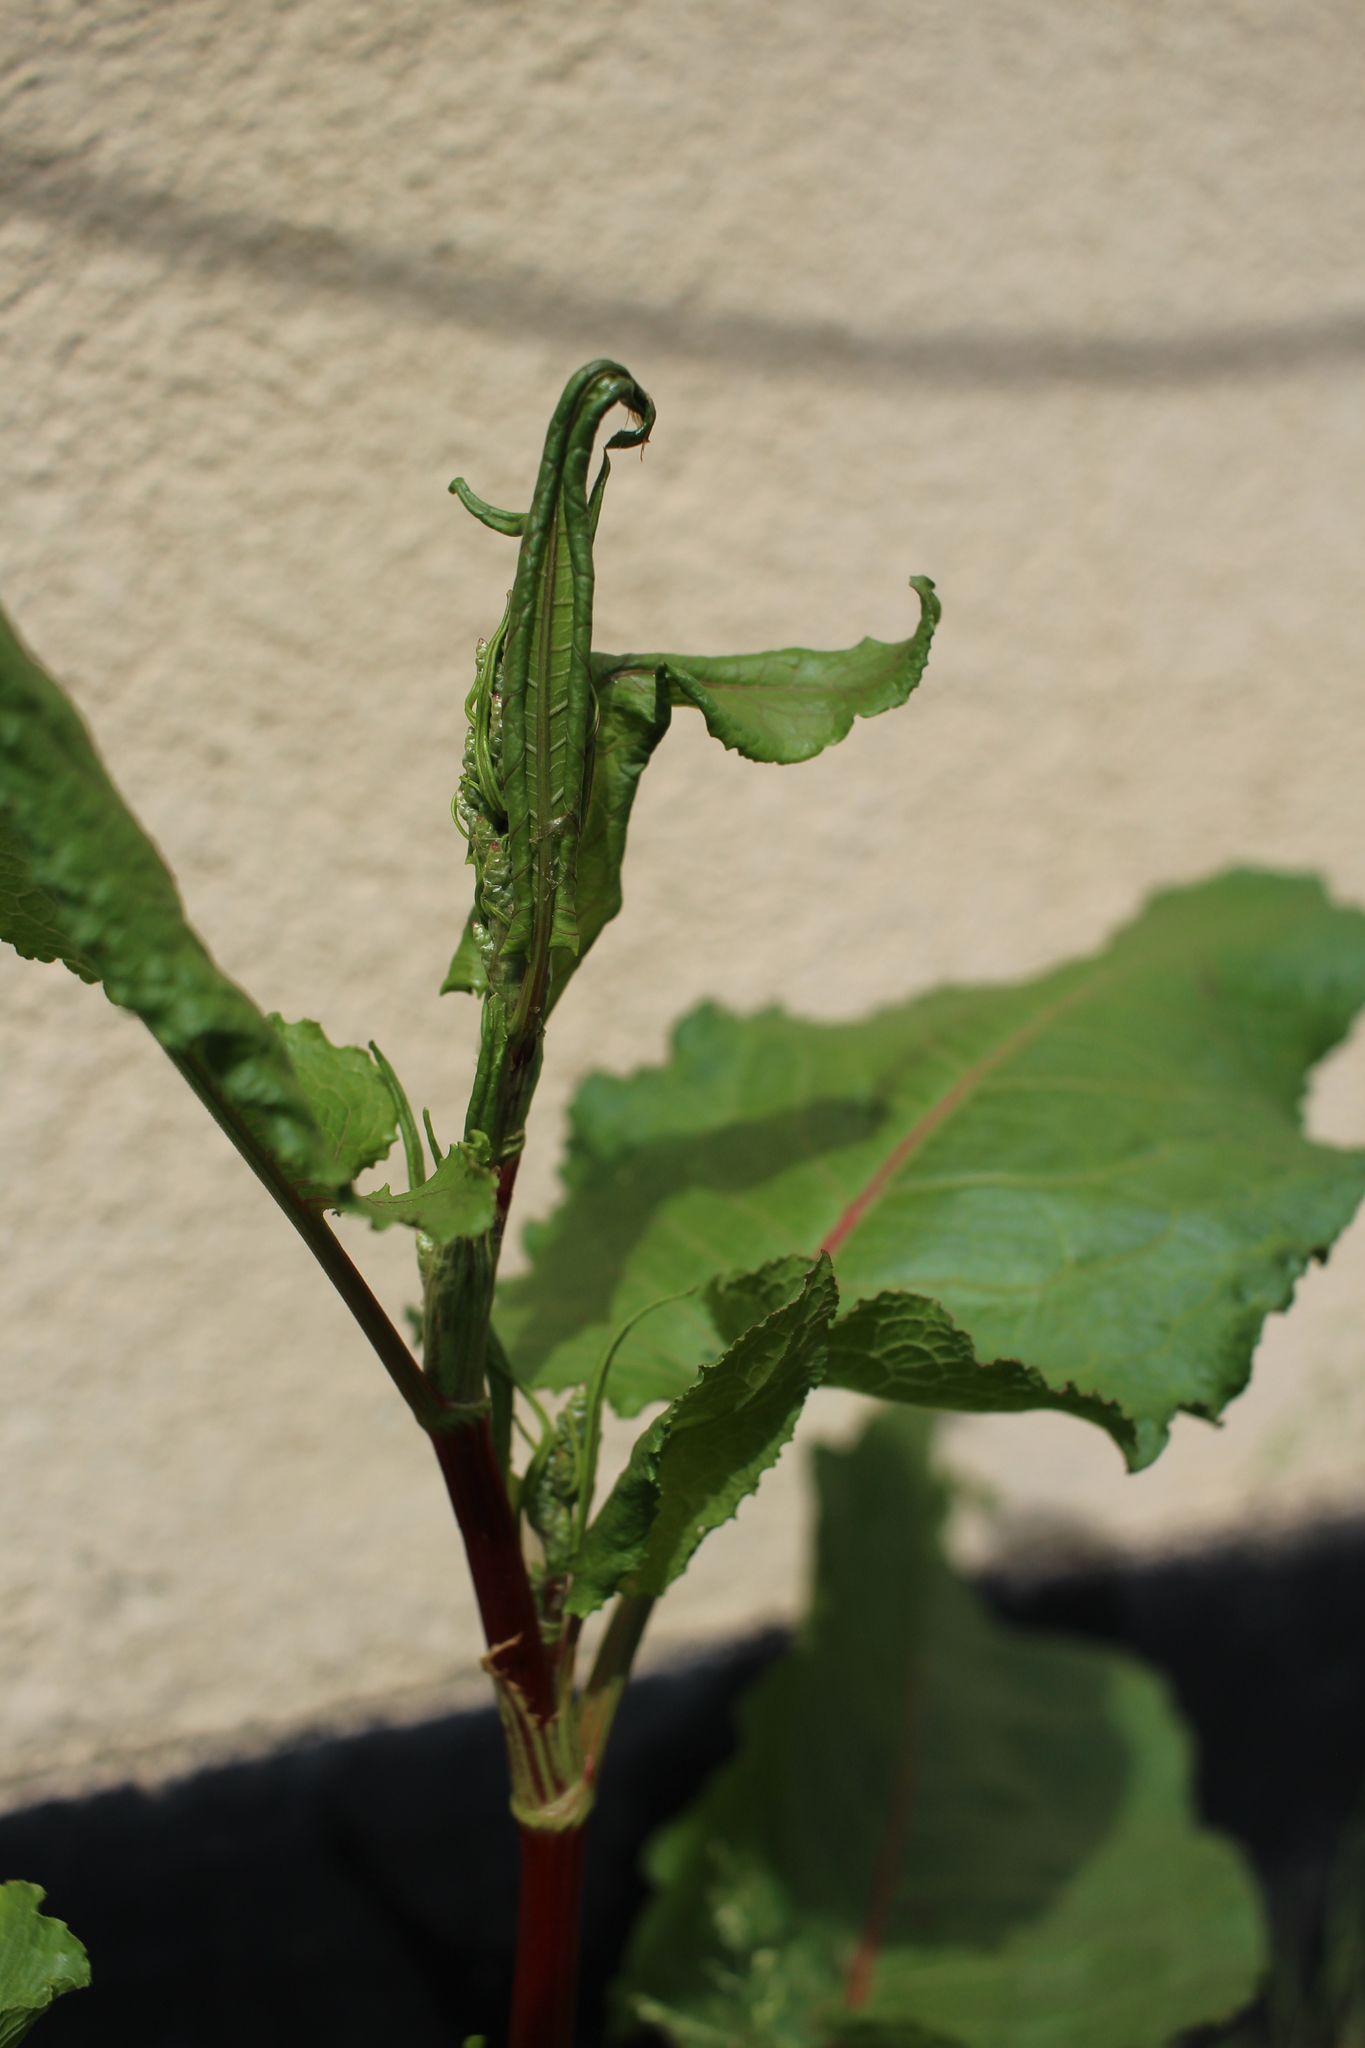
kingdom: Plantae
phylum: Tracheophyta
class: Magnoliopsida
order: Caryophyllales
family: Polygonaceae
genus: Rumex
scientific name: Rumex obtusifolius
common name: Bitter dock
